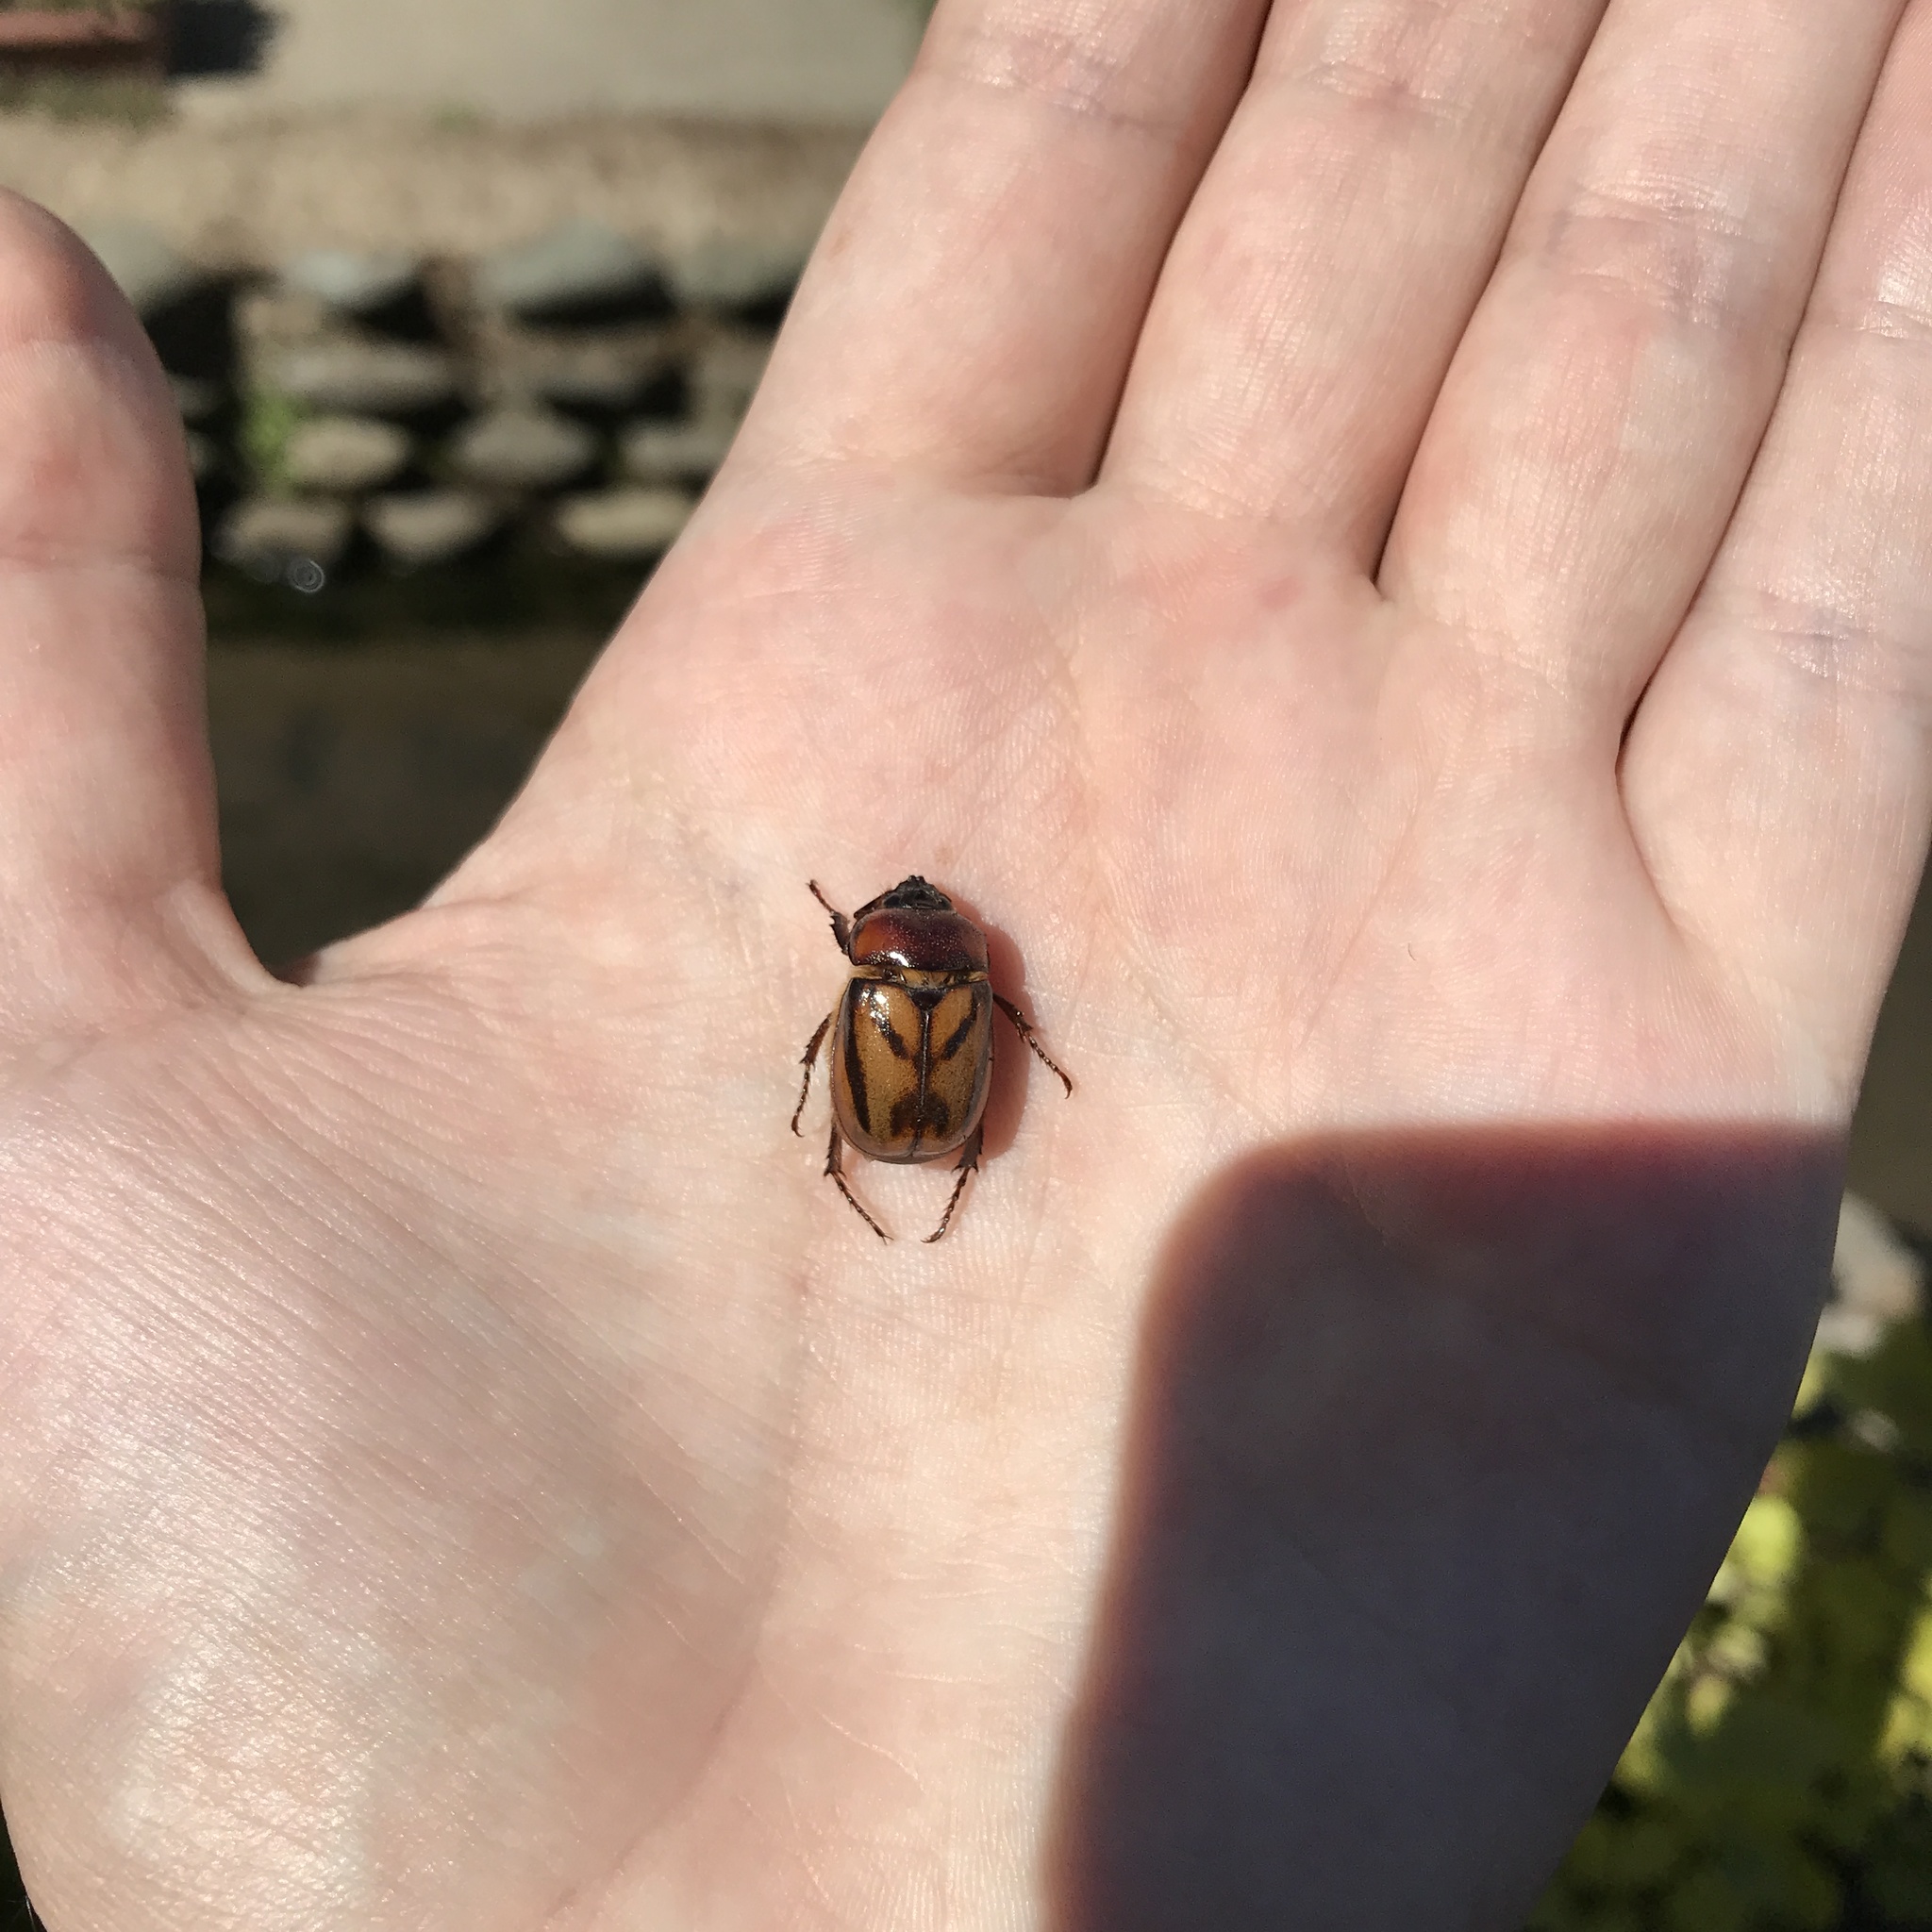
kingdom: Animalia
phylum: Arthropoda
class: Insecta
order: Coleoptera
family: Scarabaeidae
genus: Oryctomorphus
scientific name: Oryctomorphus bimaculatus
